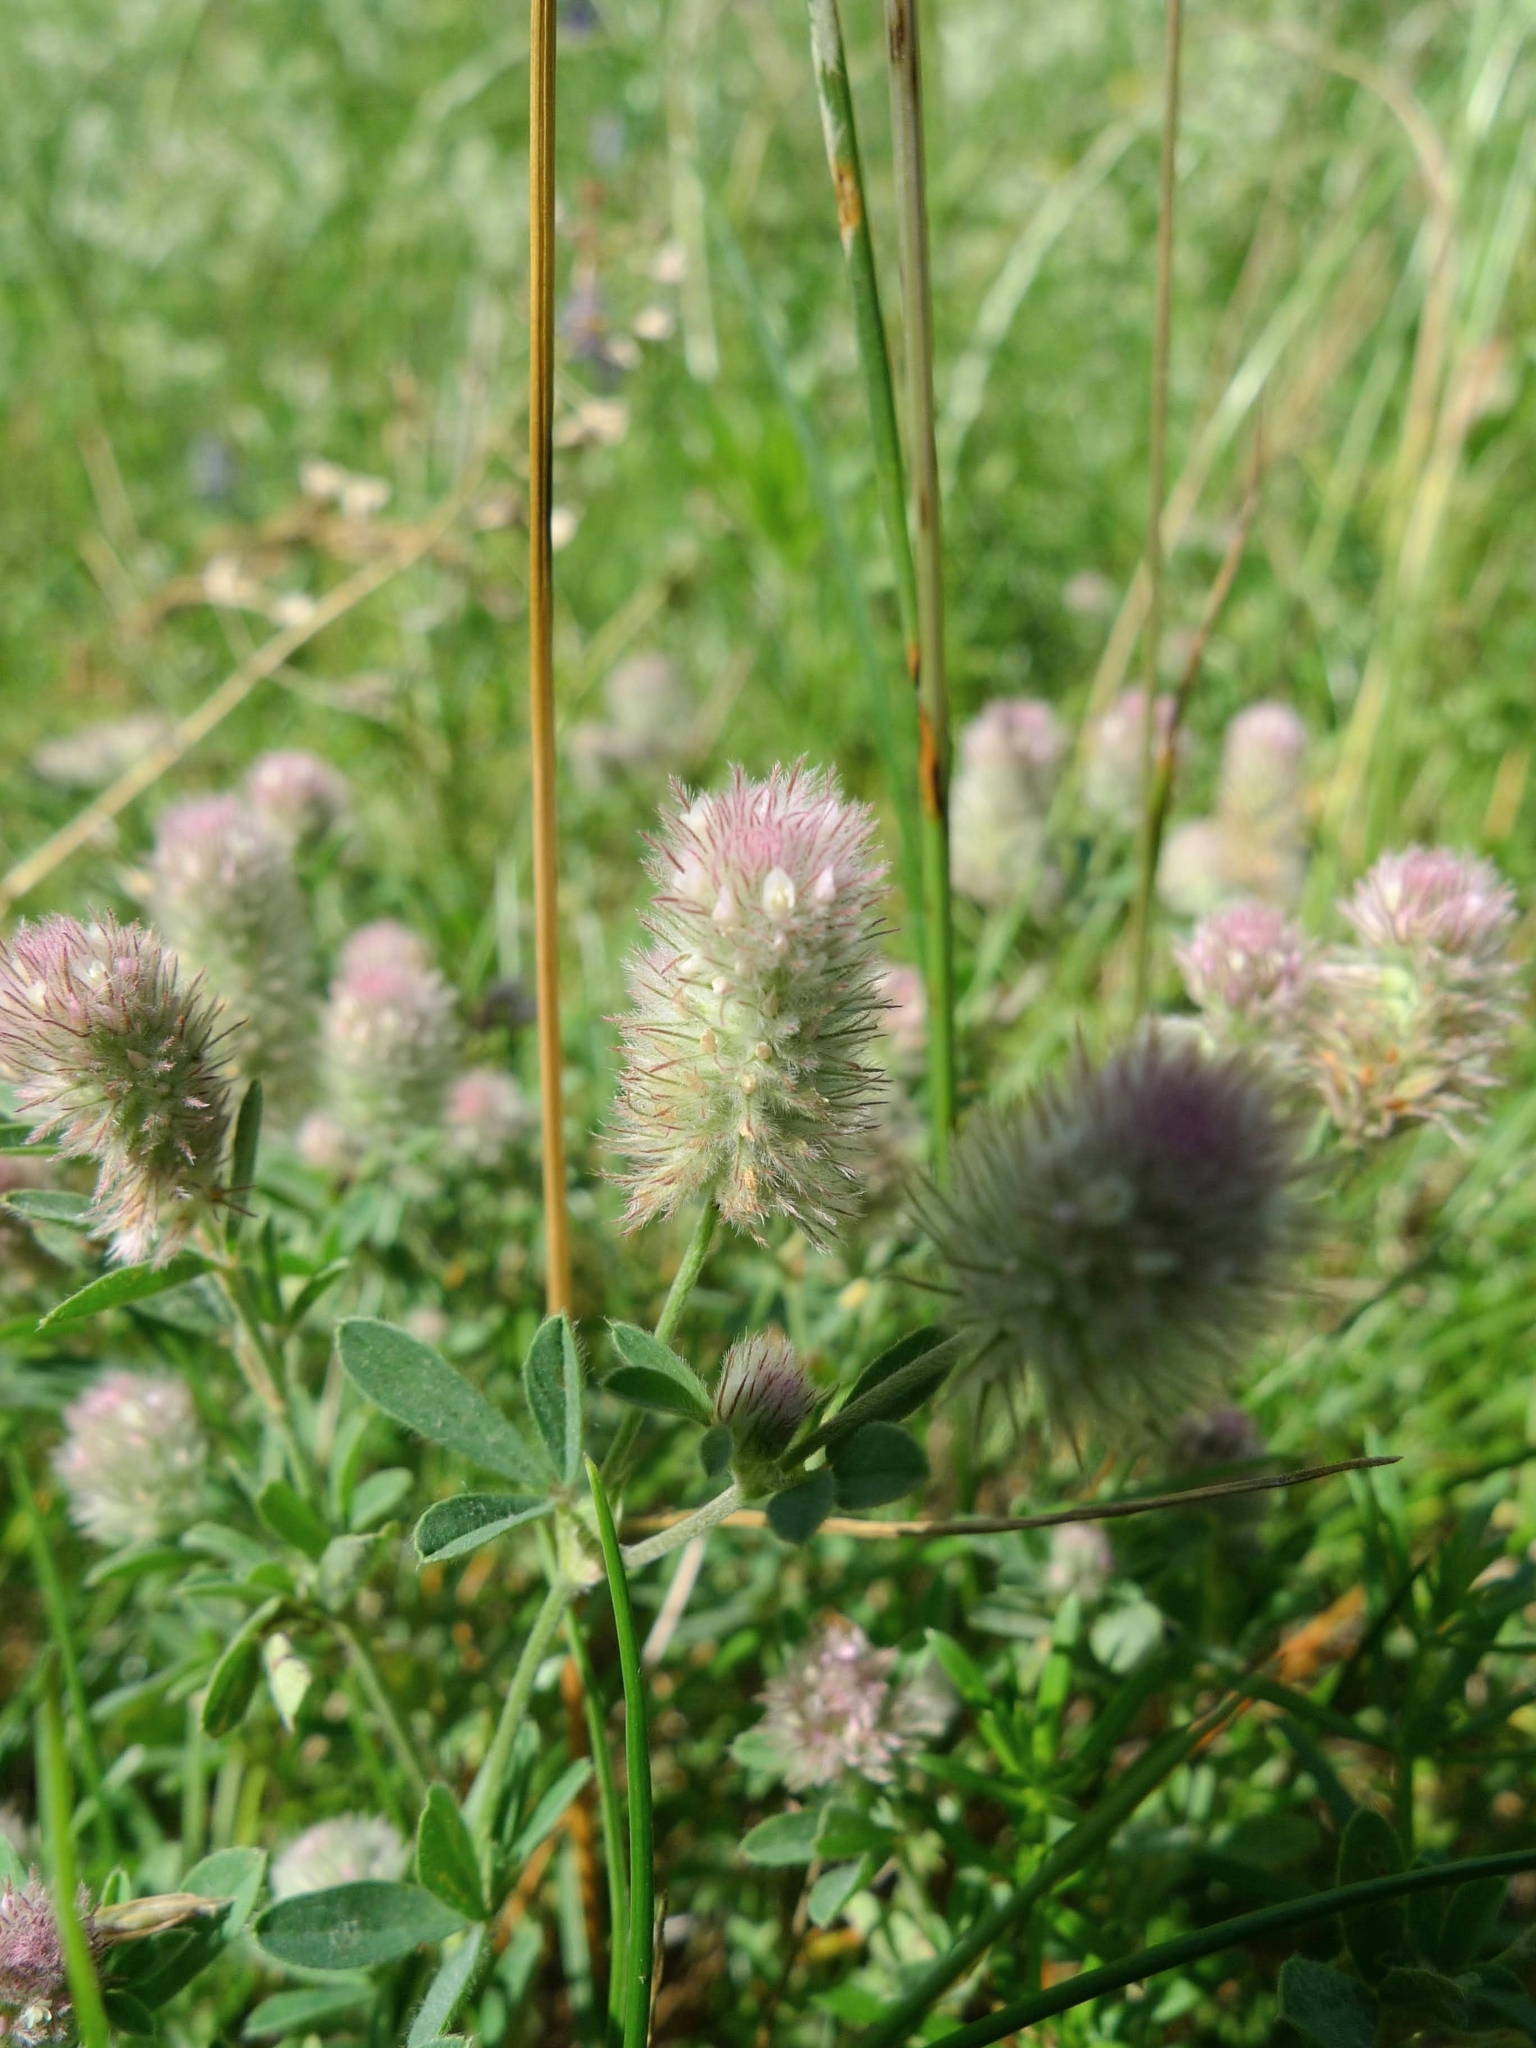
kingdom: Plantae
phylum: Tracheophyta
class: Magnoliopsida
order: Fabales
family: Fabaceae
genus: Trifolium
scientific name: Trifolium arvense
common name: Hare's-foot clover
